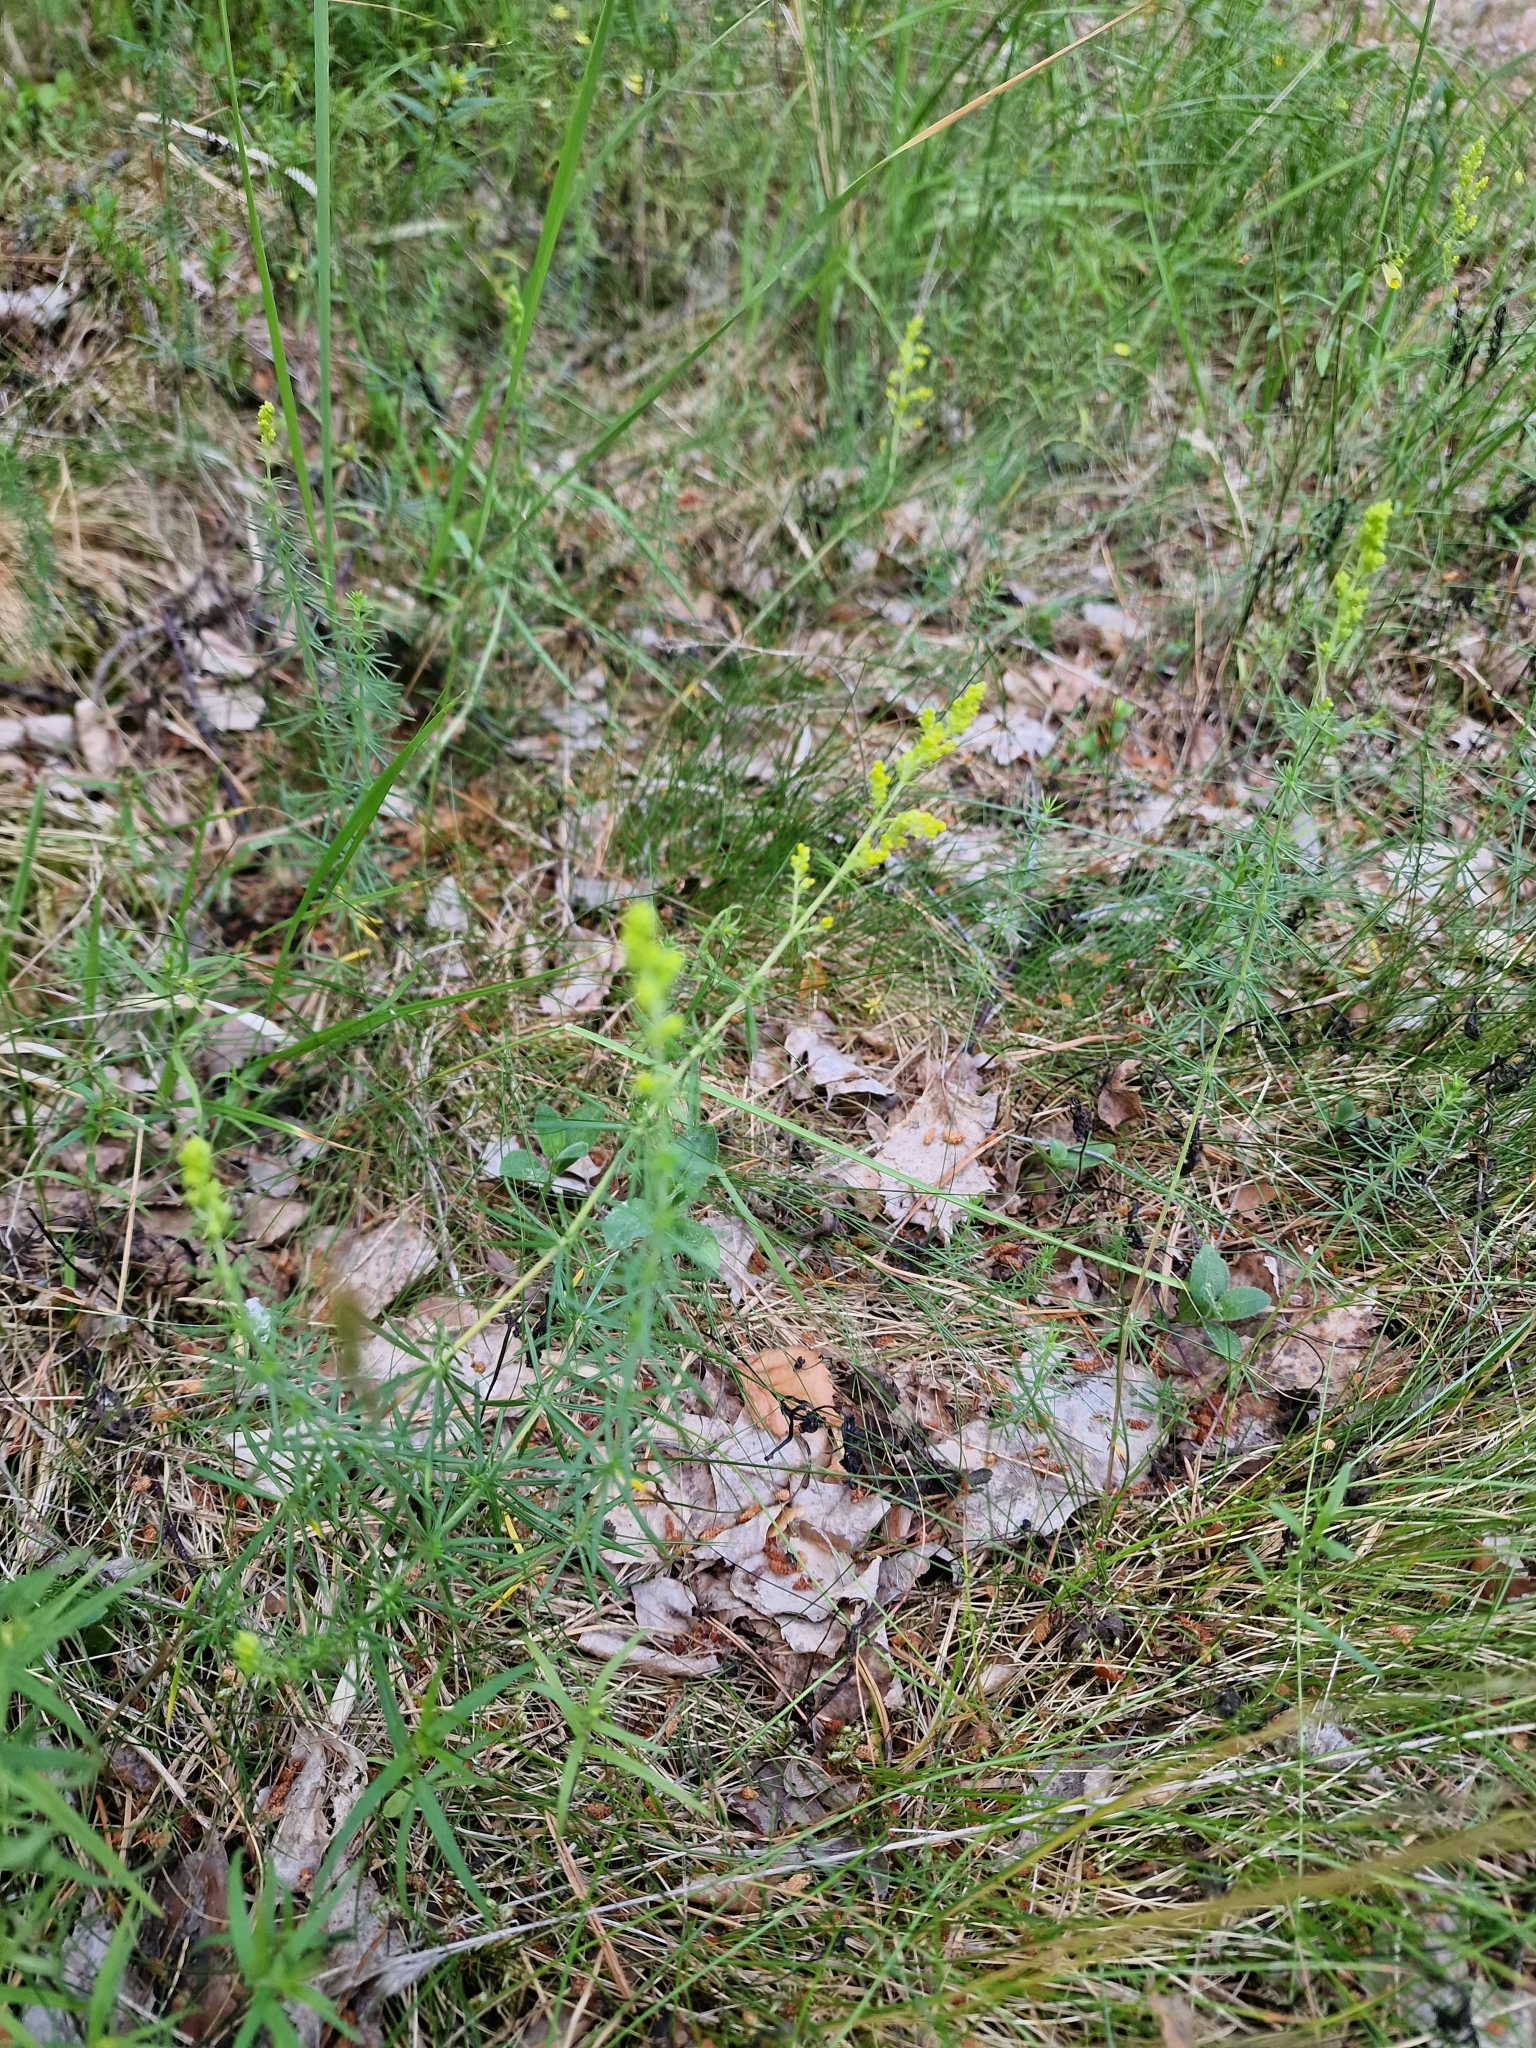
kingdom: Plantae
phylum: Tracheophyta
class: Magnoliopsida
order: Gentianales
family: Rubiaceae
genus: Galium
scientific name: Galium verum
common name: Lady's bedstraw
